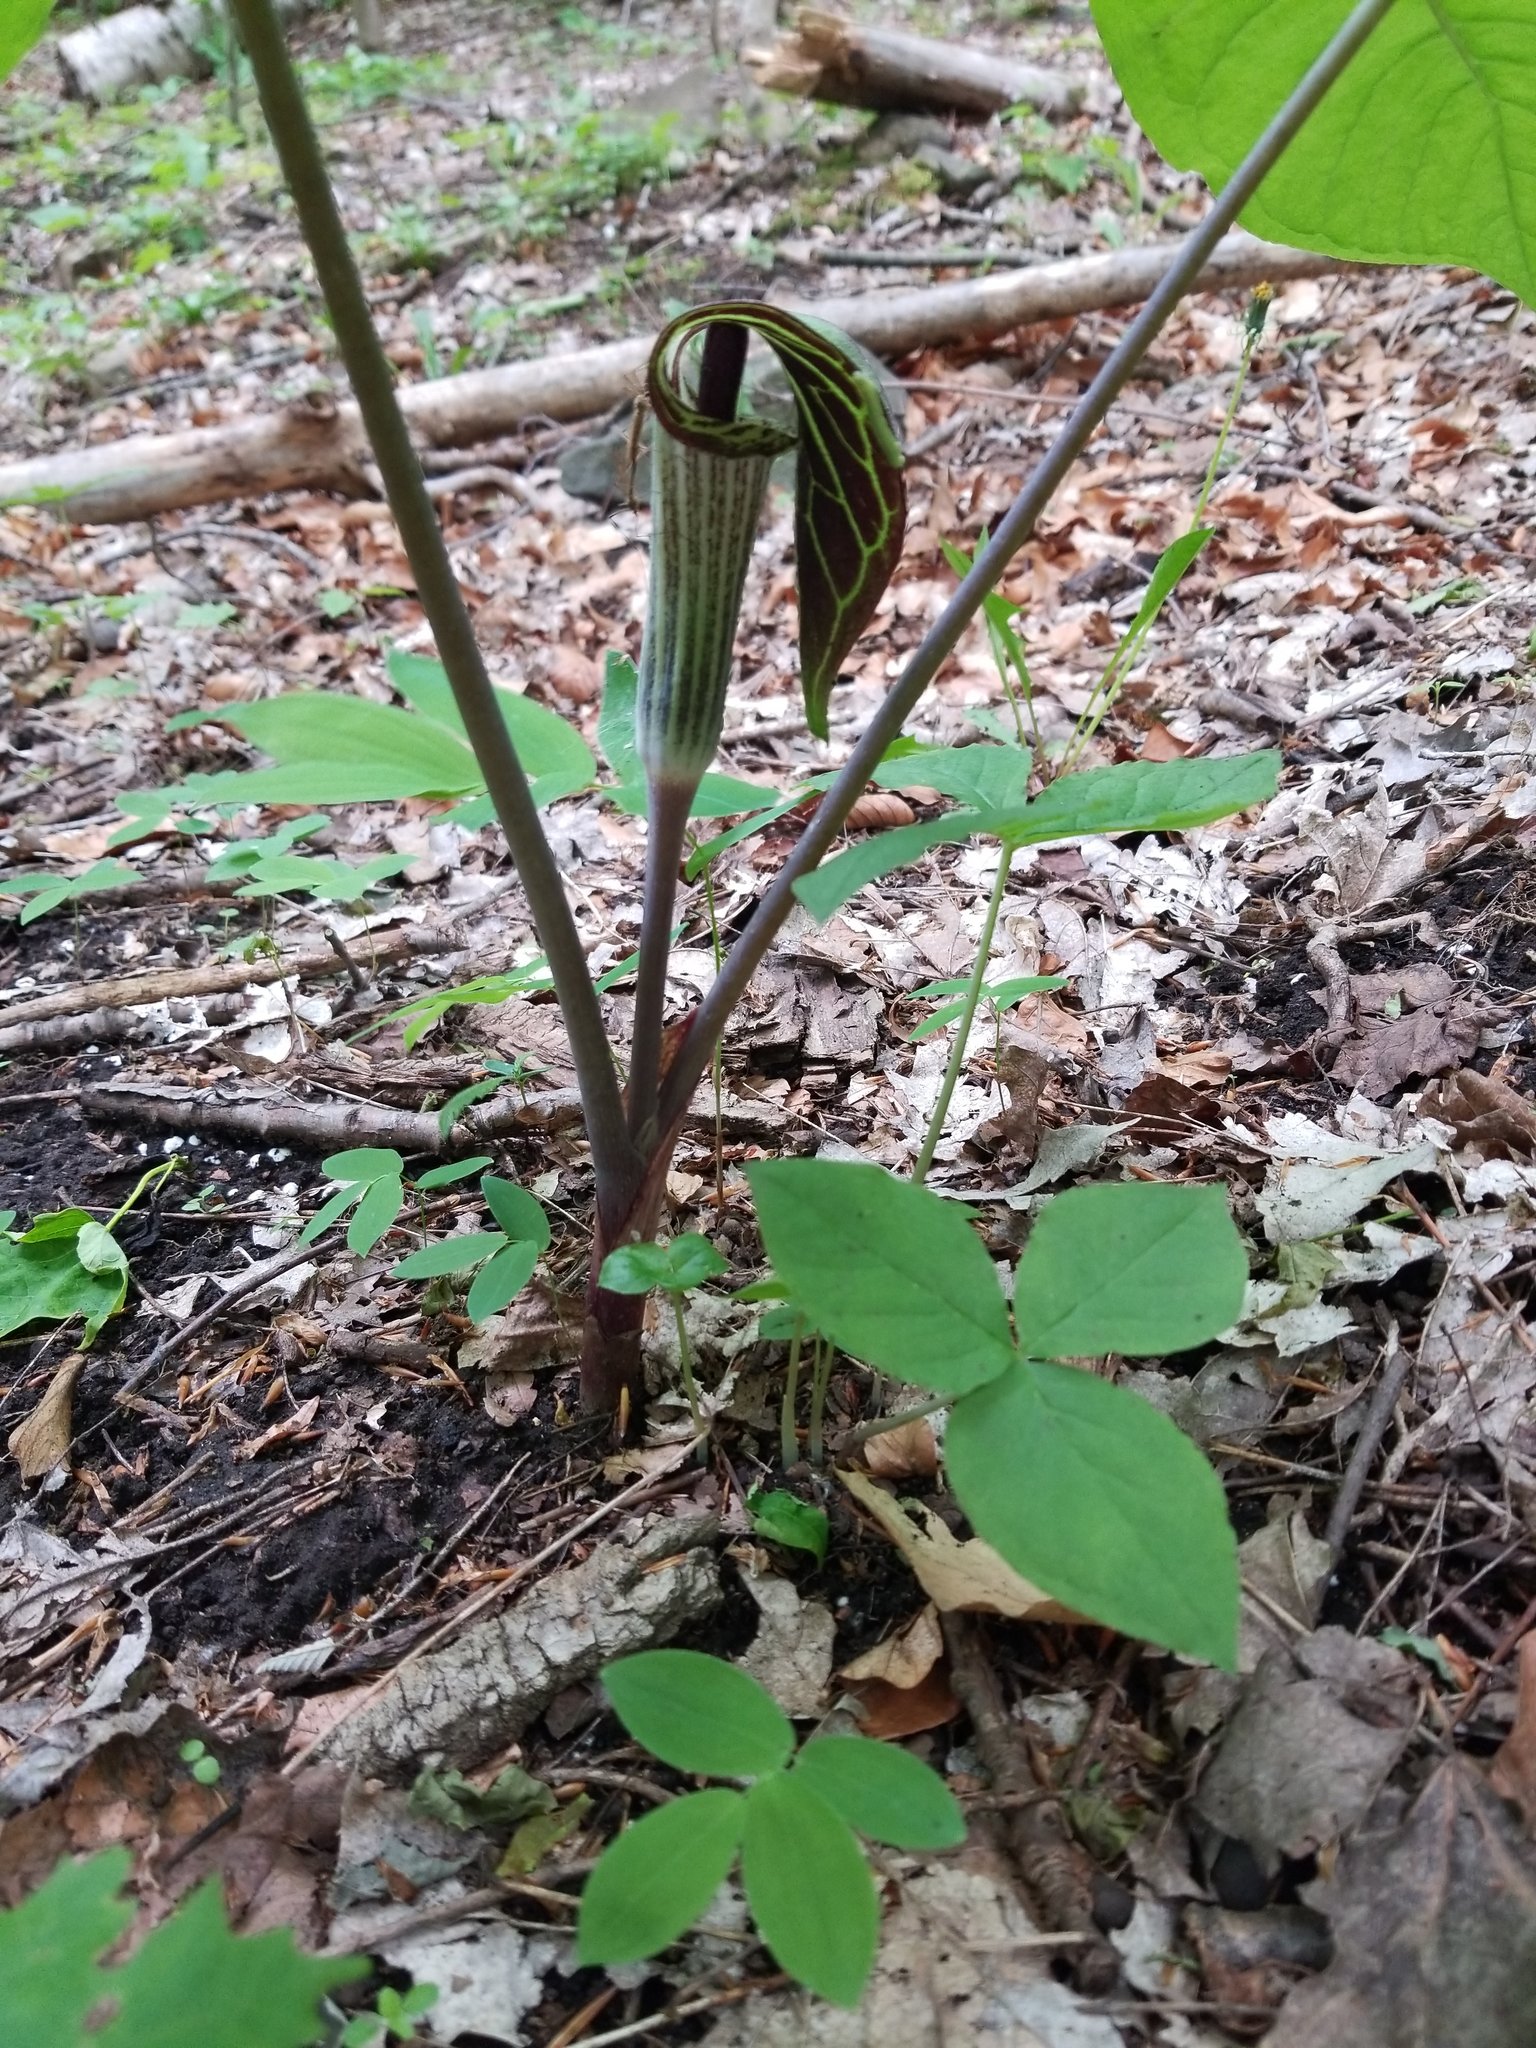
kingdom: Plantae
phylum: Tracheophyta
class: Liliopsida
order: Alismatales
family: Araceae
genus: Arisaema
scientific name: Arisaema triphyllum
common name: Jack-in-the-pulpit
